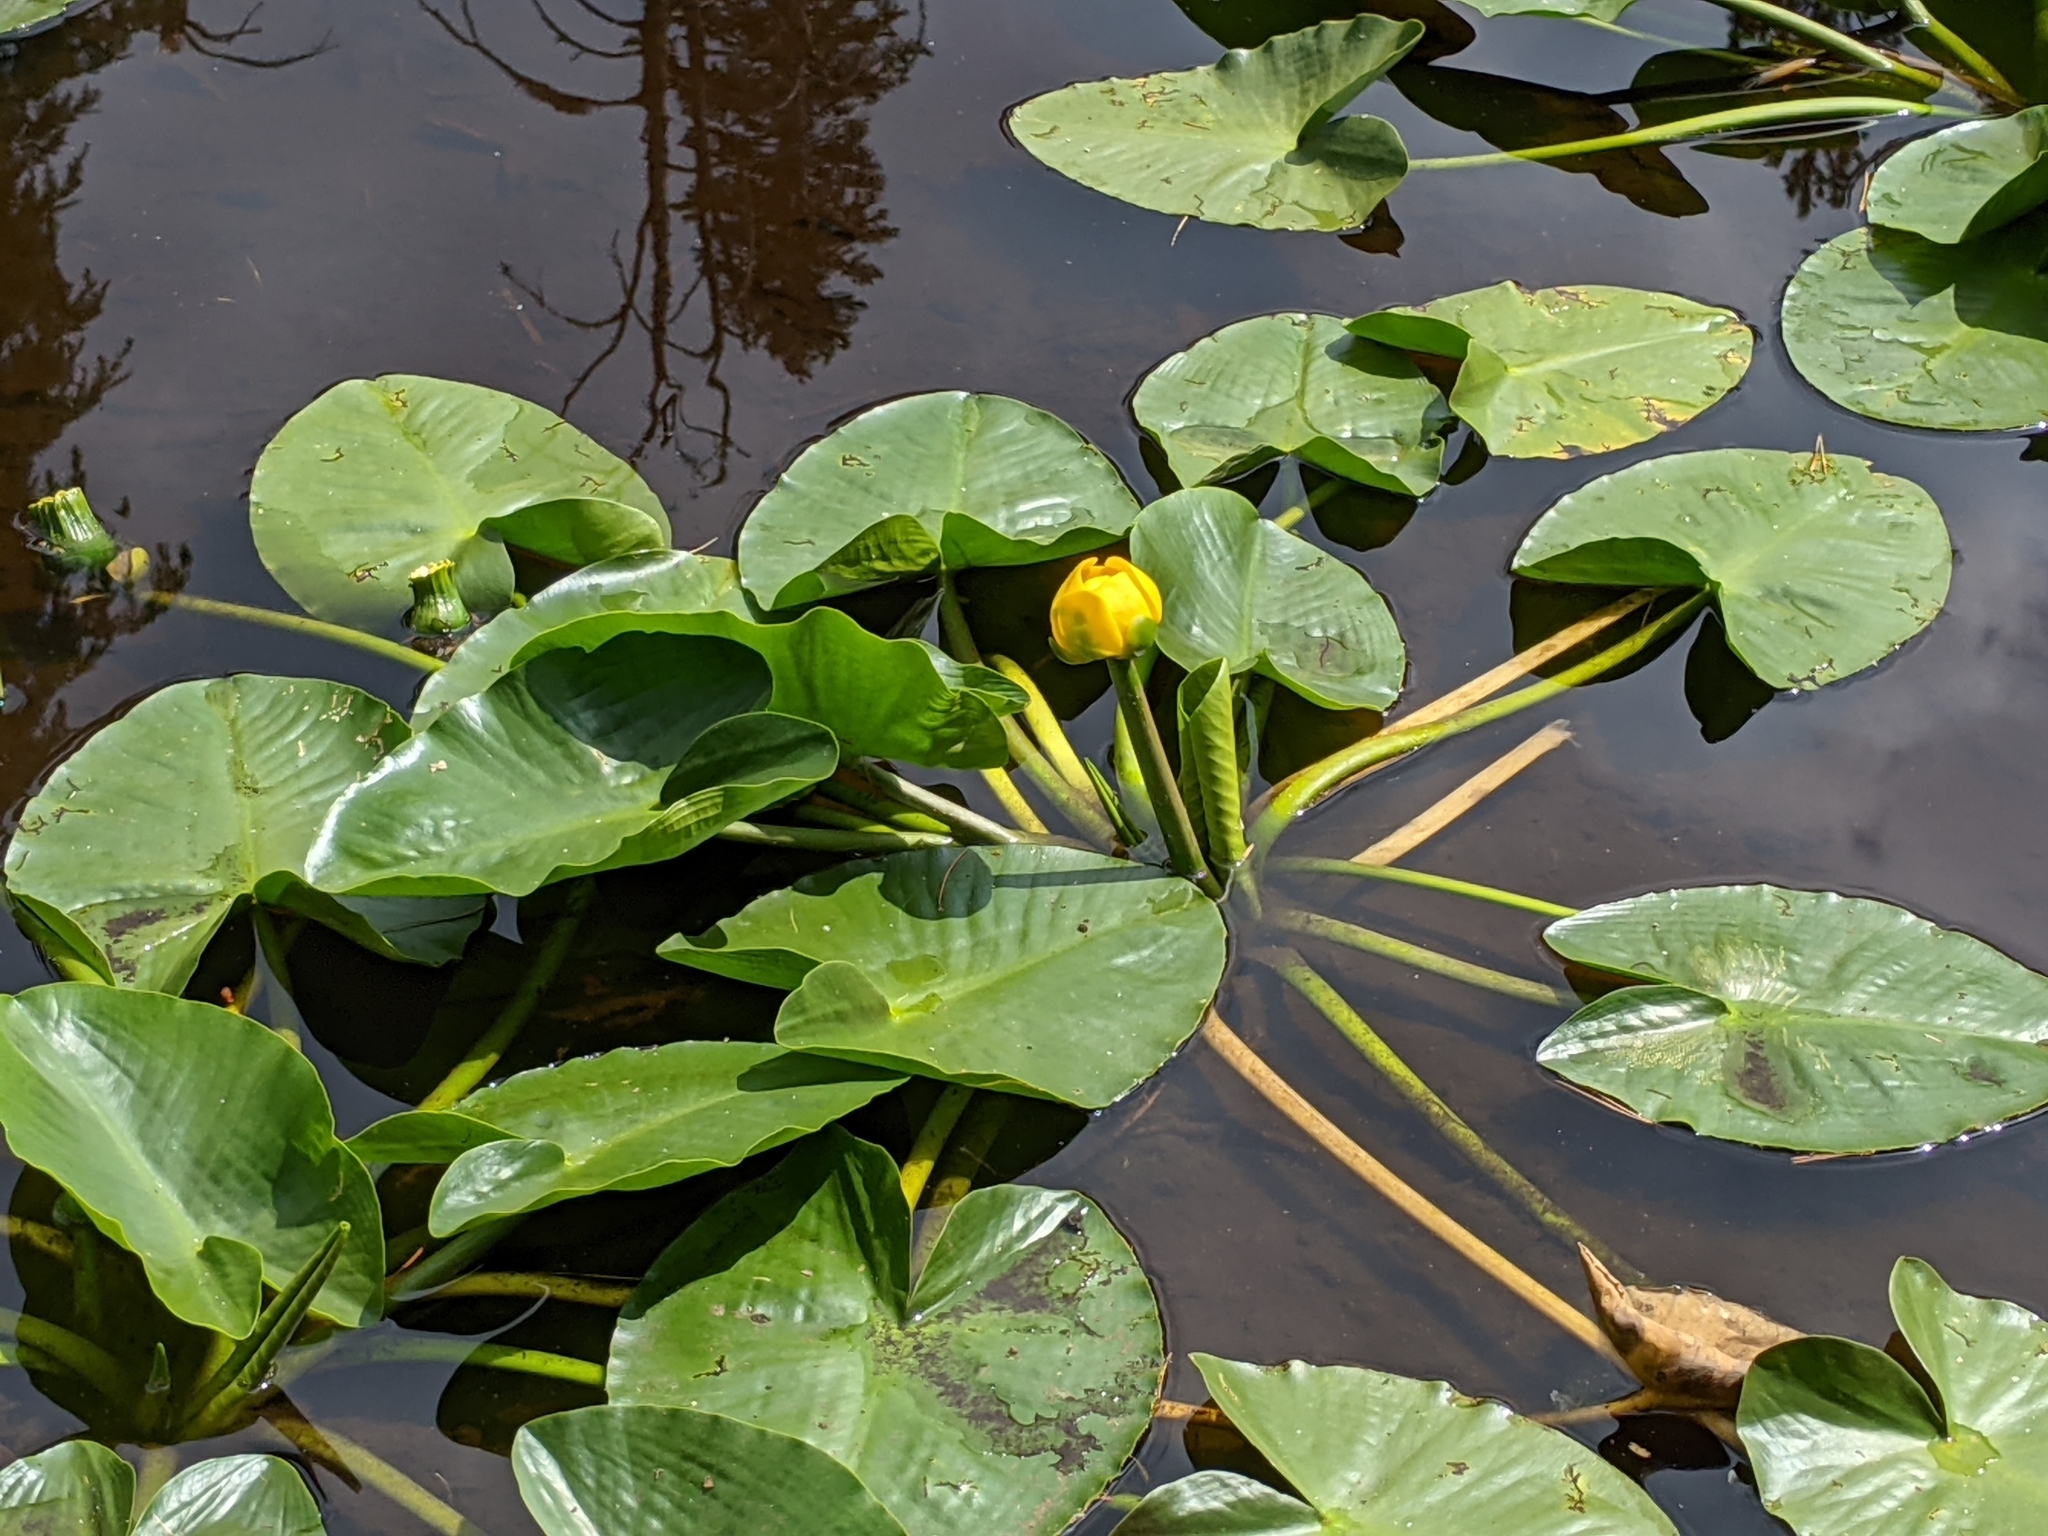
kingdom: Plantae
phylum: Tracheophyta
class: Magnoliopsida
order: Nymphaeales
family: Nymphaeaceae
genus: Nuphar
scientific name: Nuphar polysepala
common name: Rocky mountain cow-lily
